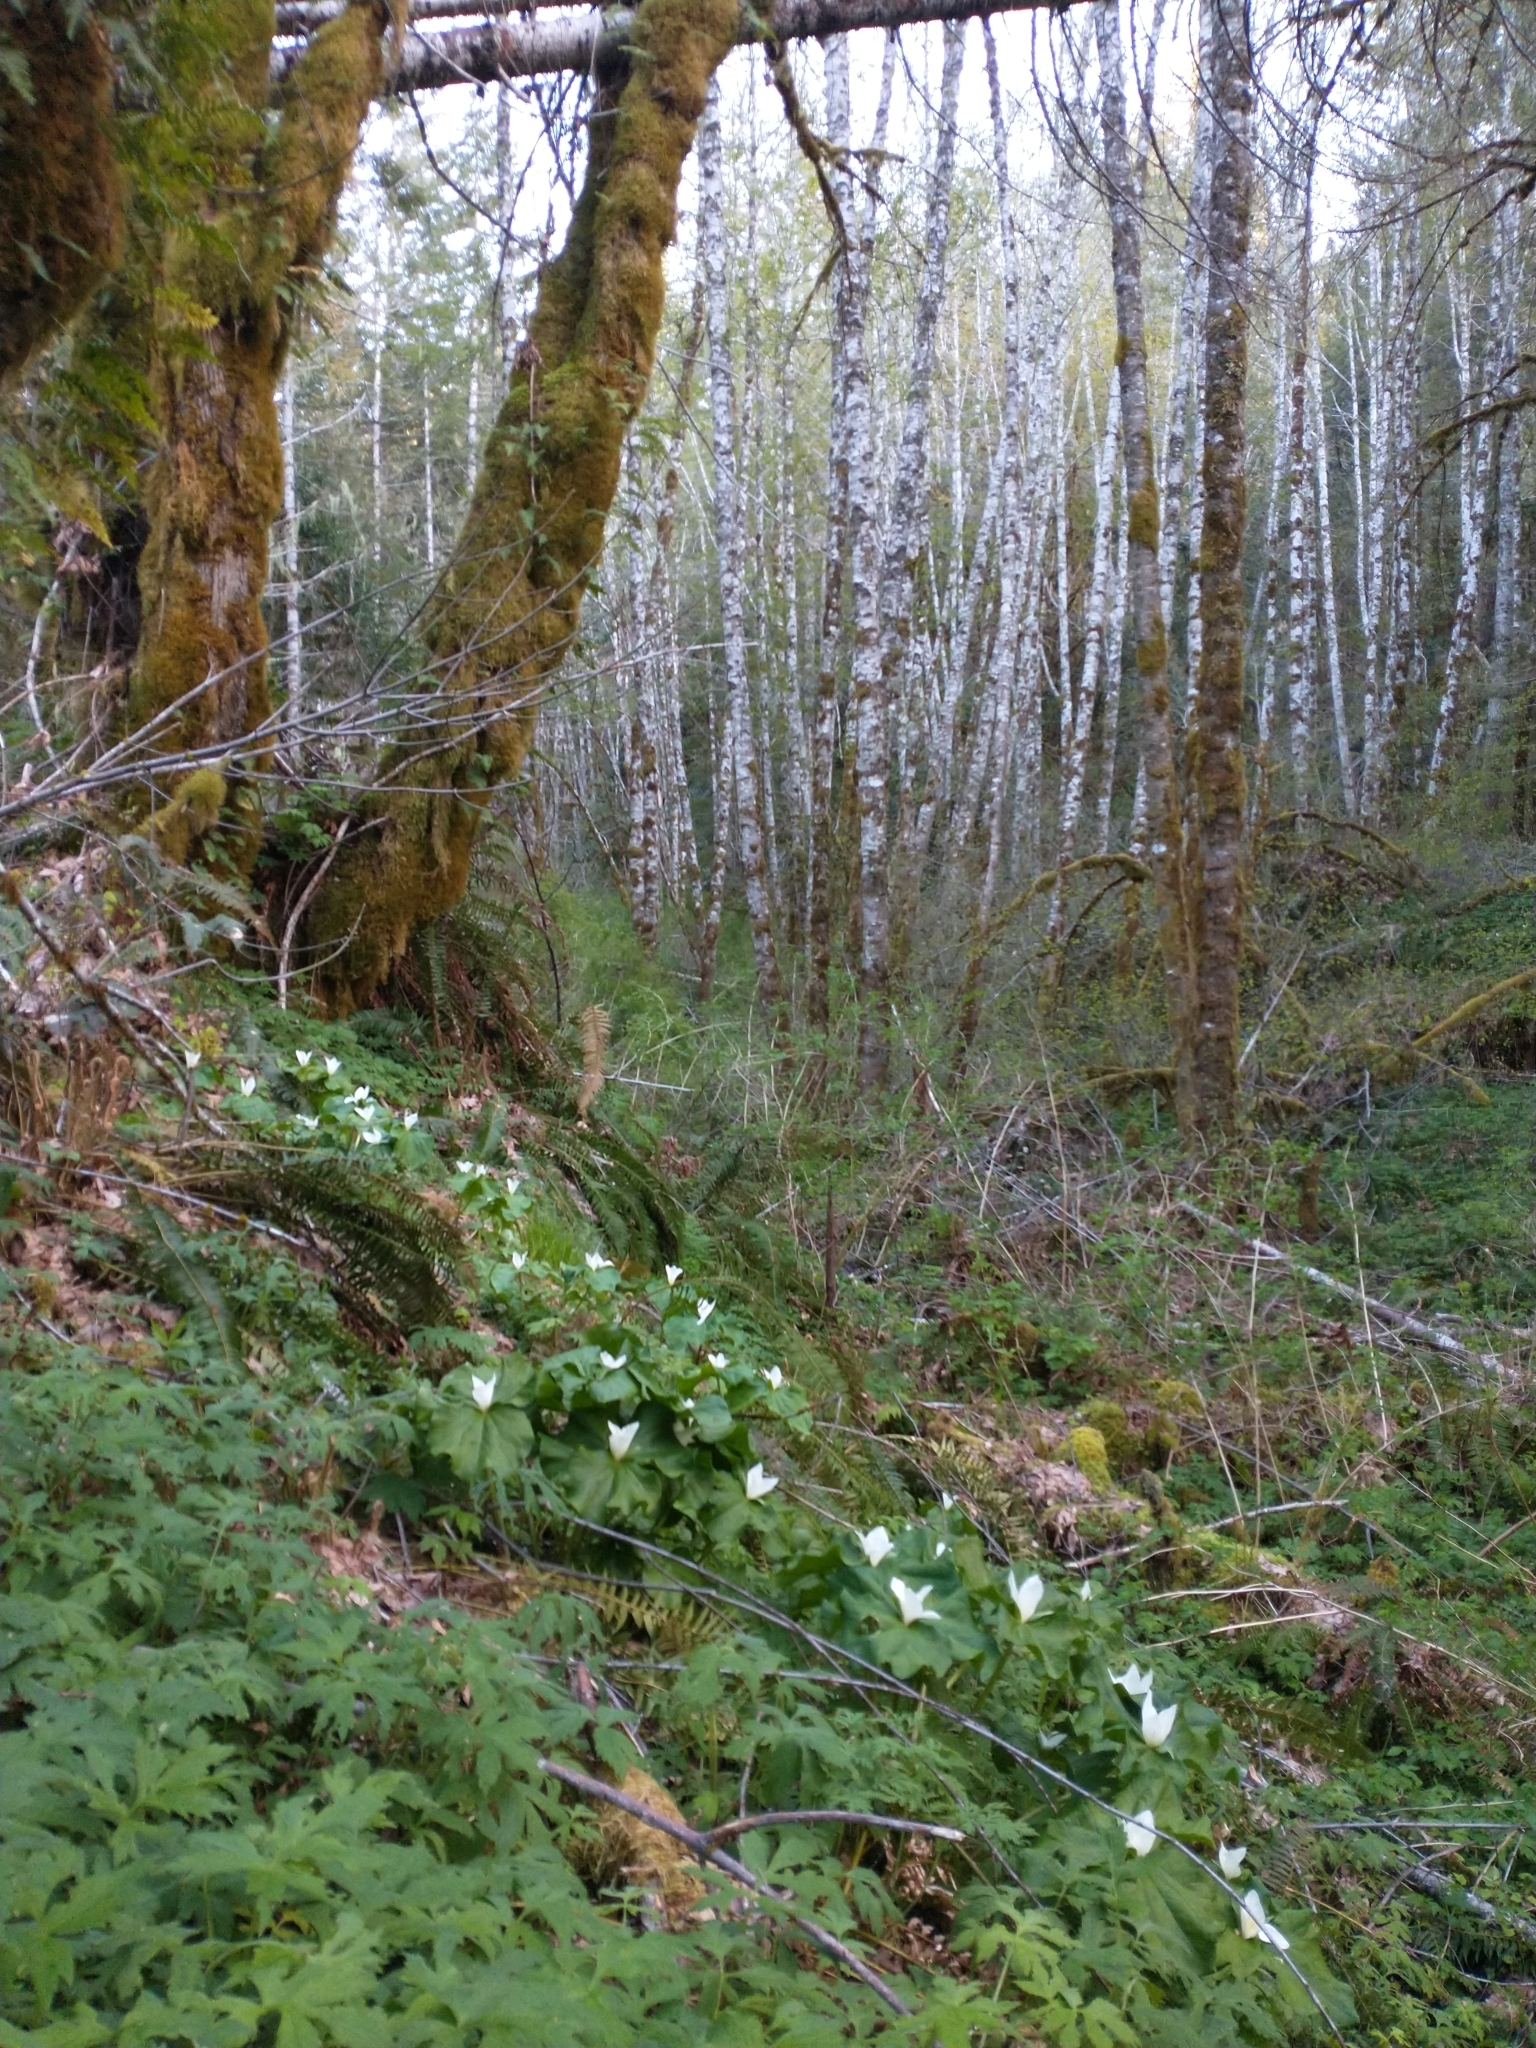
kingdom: Plantae
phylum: Tracheophyta
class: Magnoliopsida
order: Sapindales
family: Sapindaceae
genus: Acer
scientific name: Acer macrophyllum
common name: Oregon maple
